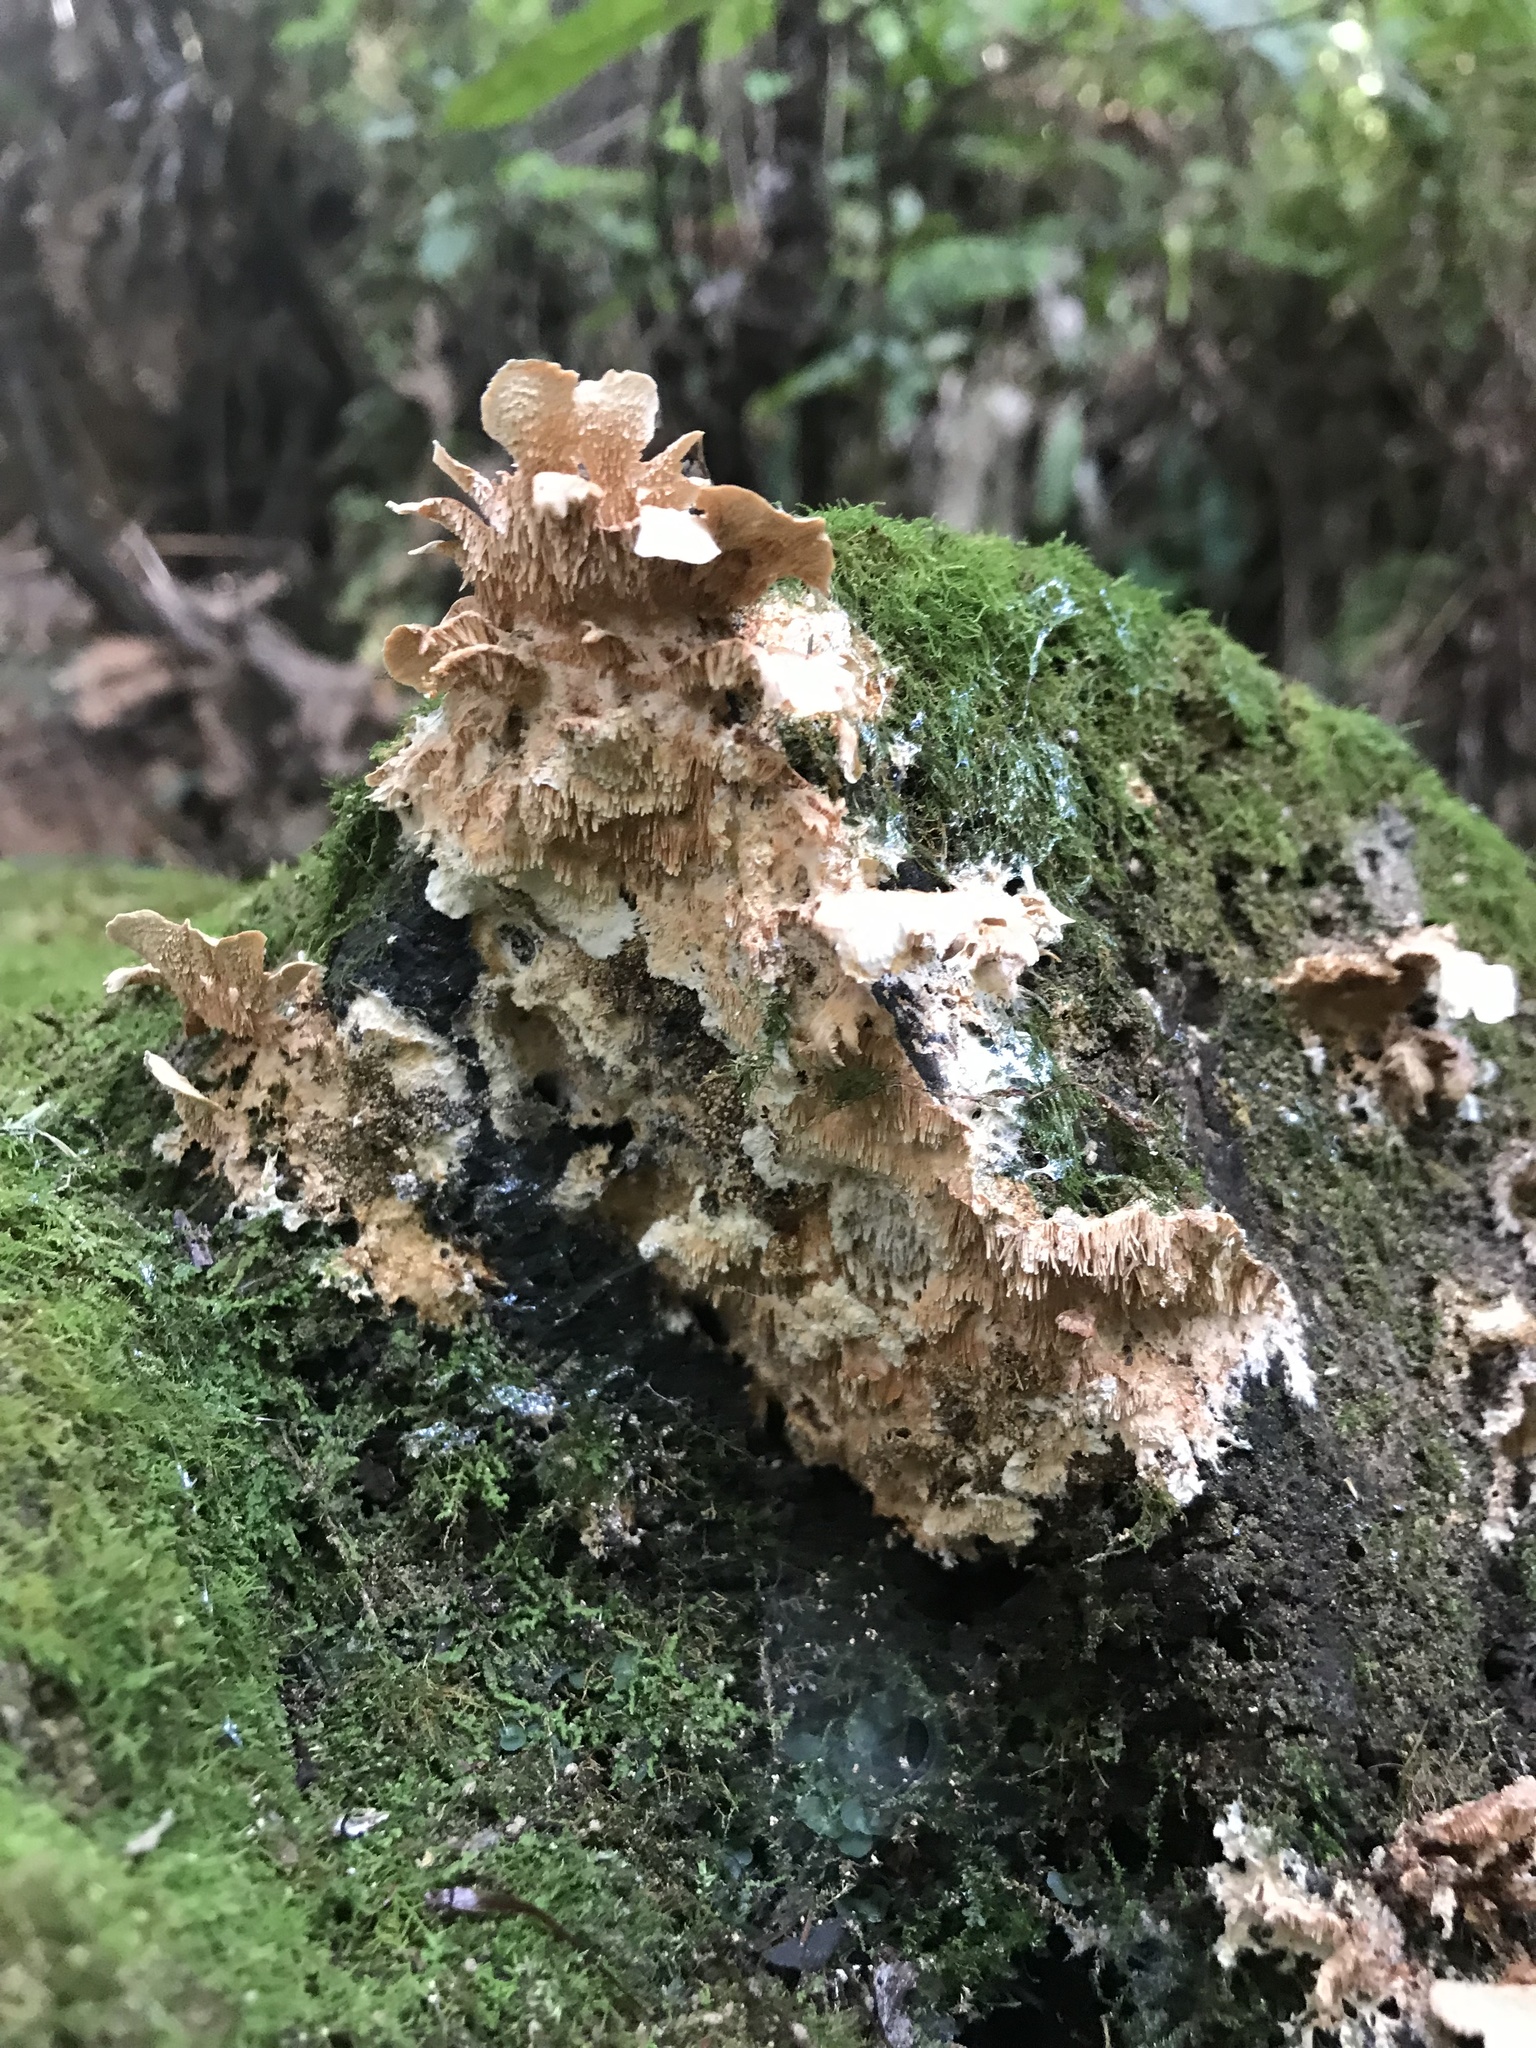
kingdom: Fungi
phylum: Basidiomycota
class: Agaricomycetes
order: Polyporales
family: Cerrenaceae
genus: Cerrena
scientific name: Cerrena zonata
